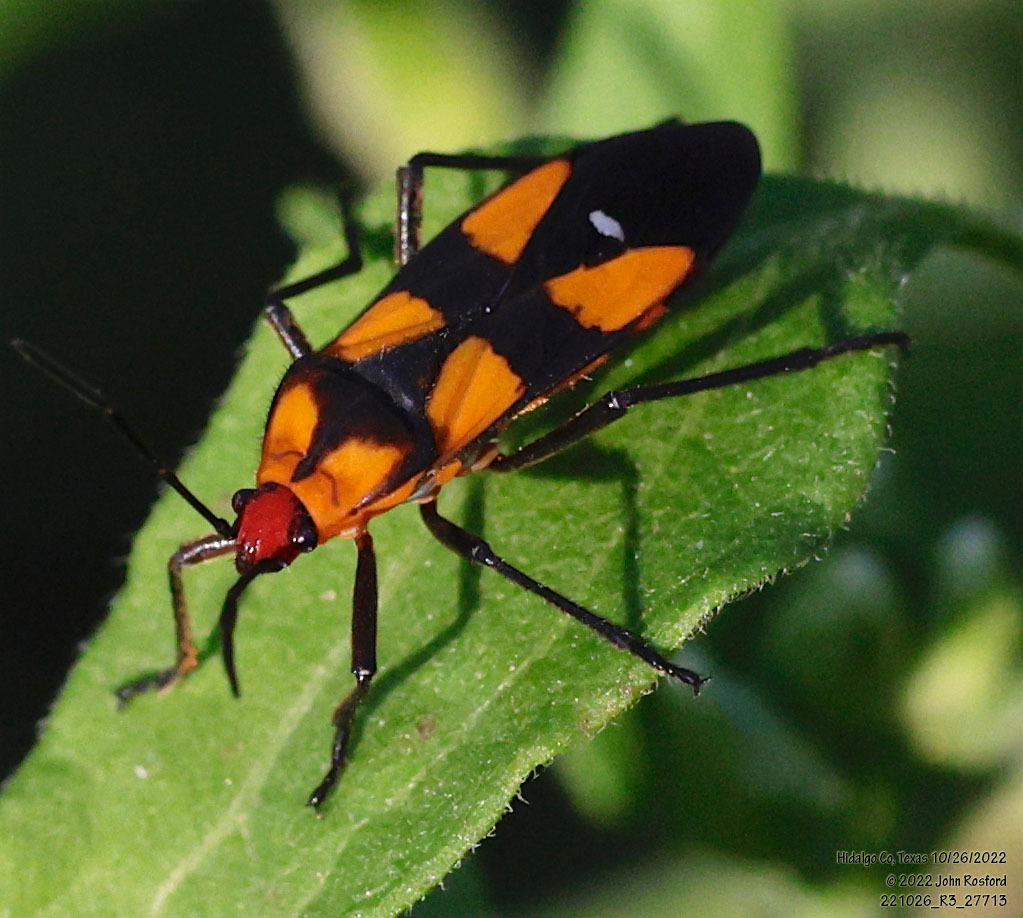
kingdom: Animalia
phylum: Arthropoda
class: Insecta
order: Hemiptera
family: Lygaeidae
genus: Oncopeltus
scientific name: Oncopeltus sexmaculatus
